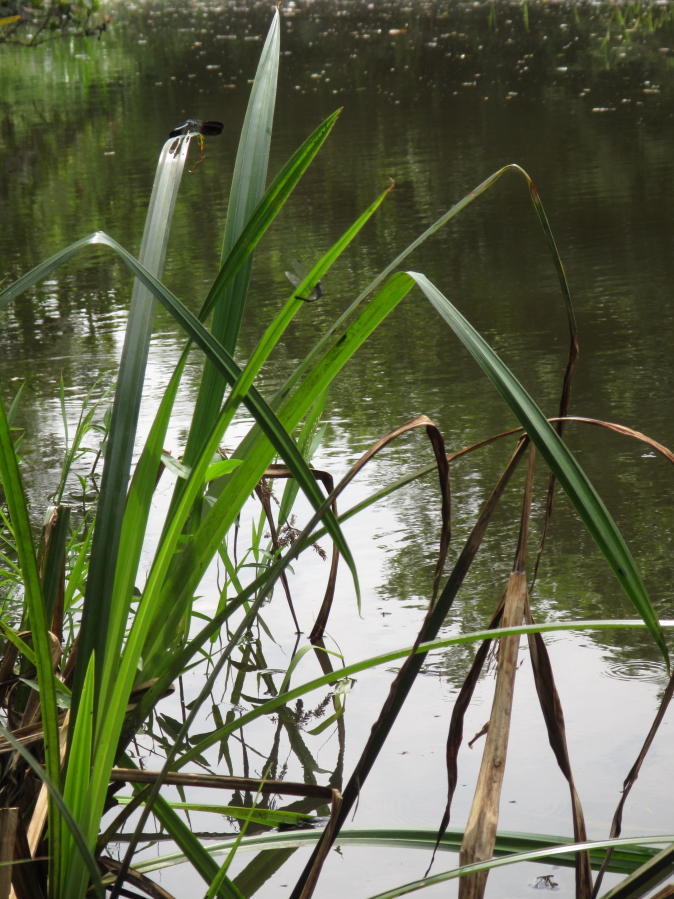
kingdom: Animalia
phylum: Arthropoda
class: Insecta
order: Odonata
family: Libellulidae
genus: Tetrathemis
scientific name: Tetrathemis polleni
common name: Black-splashed elf
